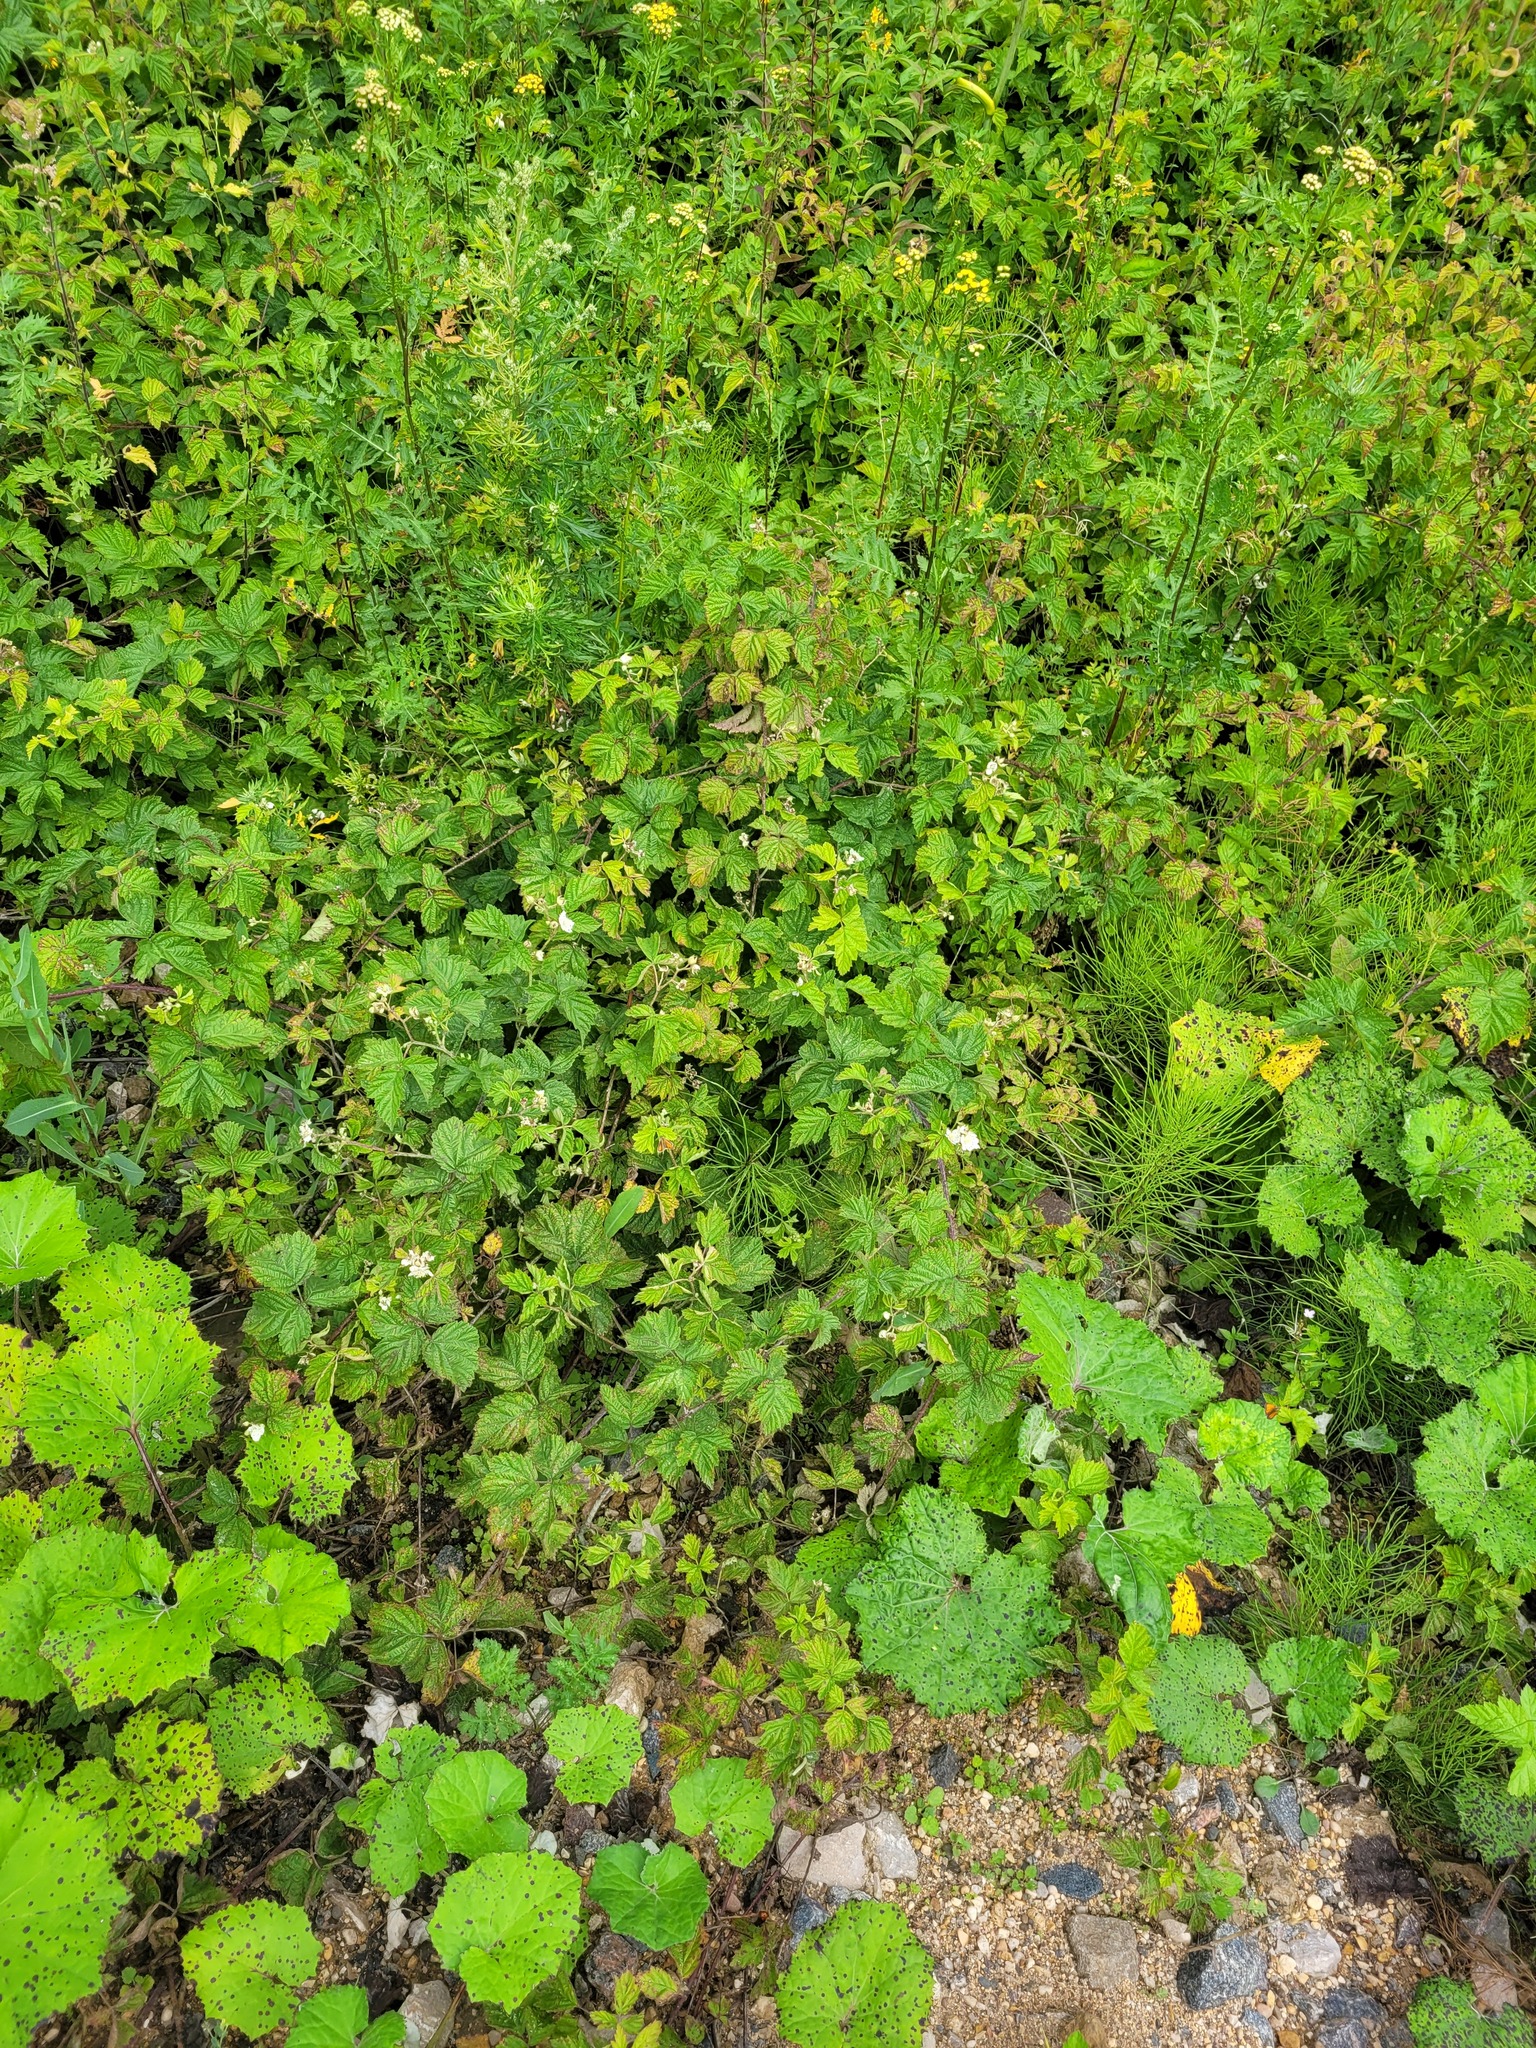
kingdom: Plantae
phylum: Tracheophyta
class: Magnoliopsida
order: Rosales
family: Rosaceae
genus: Rubus
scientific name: Rubus caesius
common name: Dewberry
